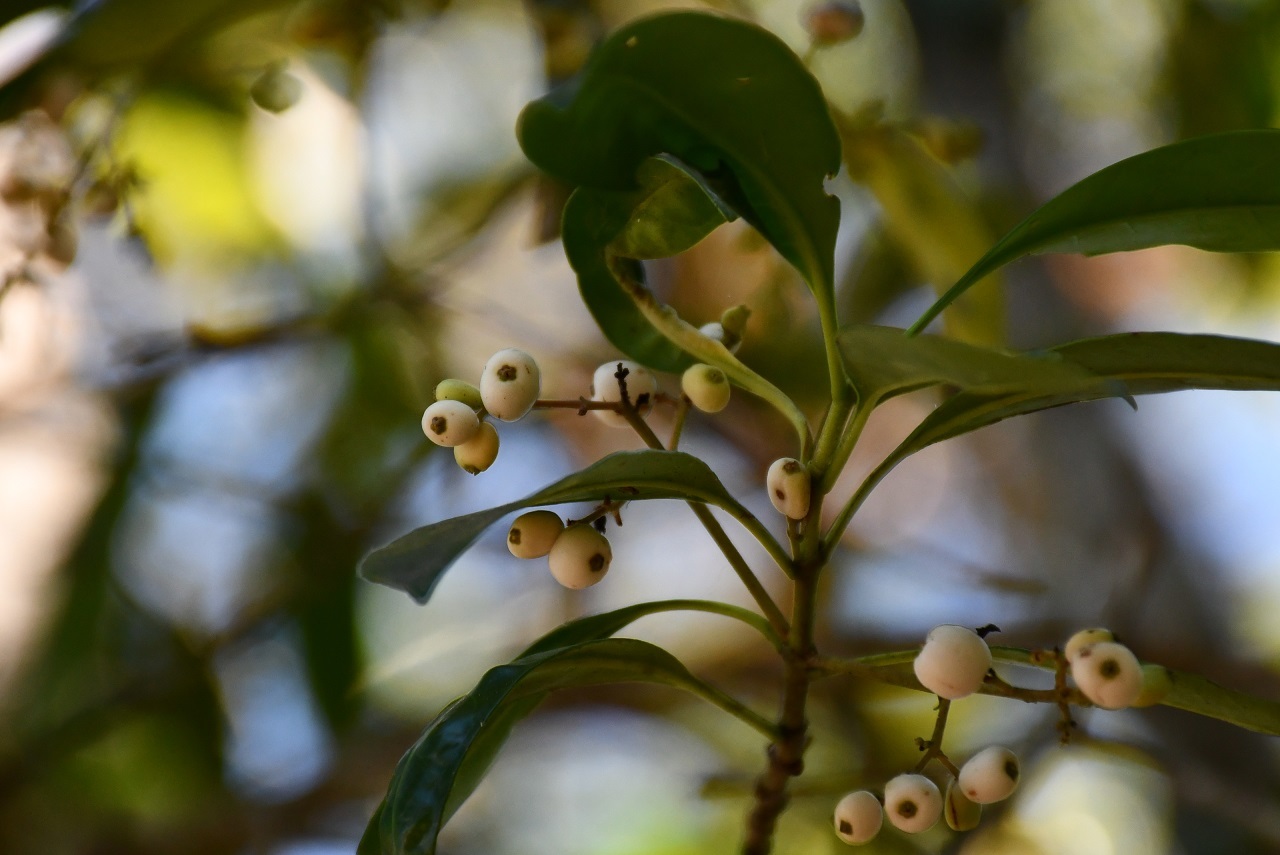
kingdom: Plantae
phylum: Tracheophyta
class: Magnoliopsida
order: Gentianales
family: Rubiaceae
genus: Chiococca
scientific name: Chiococca filipes
